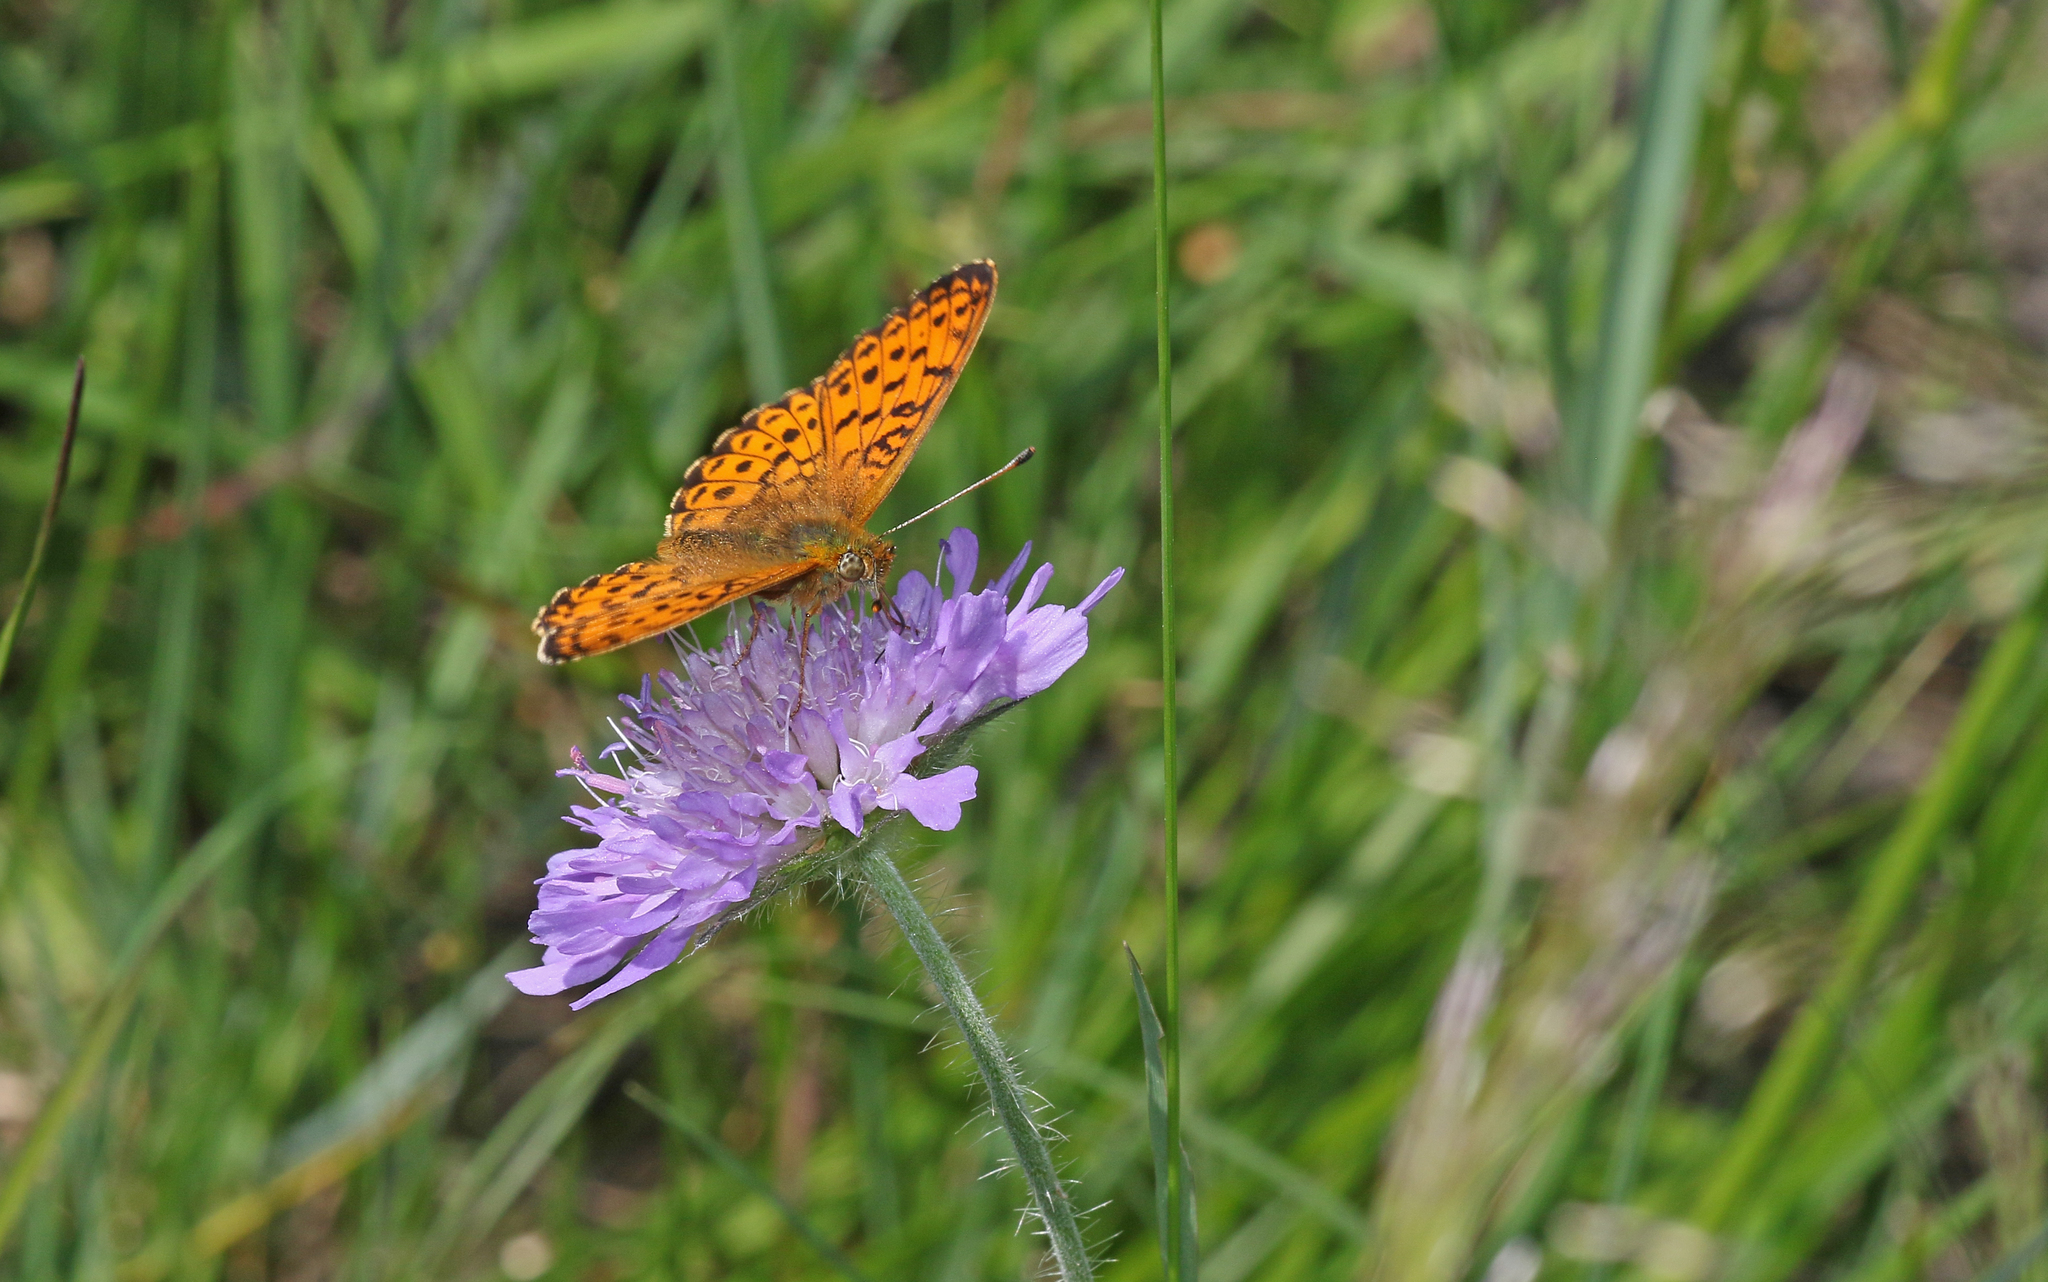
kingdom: Animalia
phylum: Arthropoda
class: Insecta
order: Lepidoptera
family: Nymphalidae
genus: Brenthis
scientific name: Brenthis ino
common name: Lesser marbled fritillary
